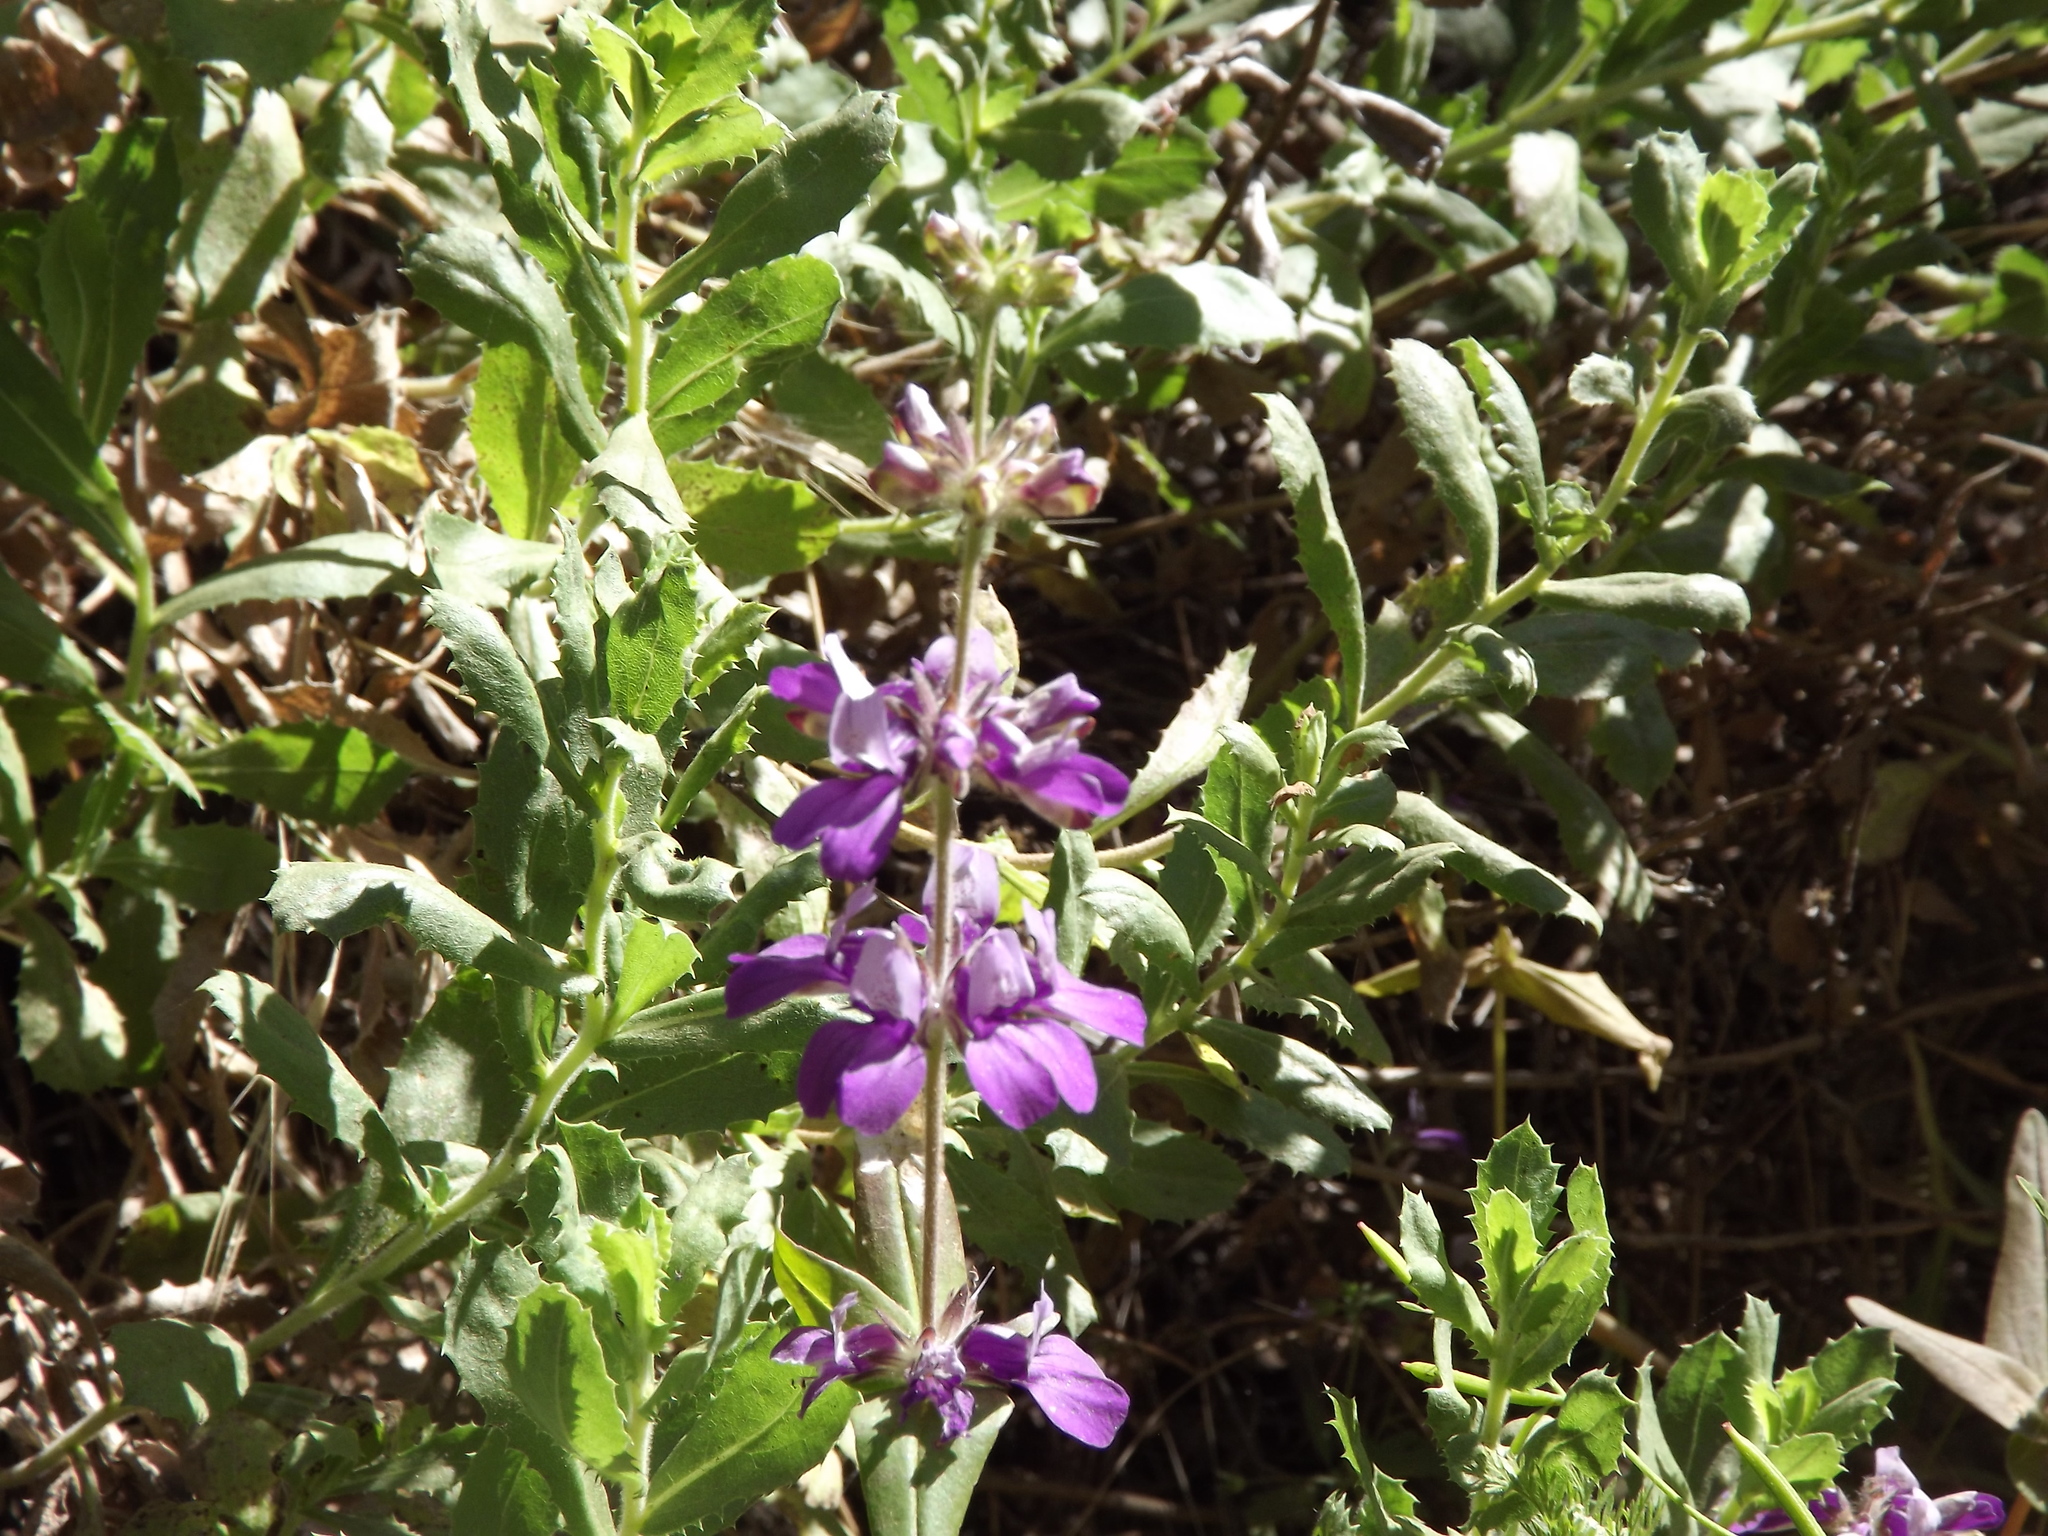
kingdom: Plantae
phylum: Tracheophyta
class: Magnoliopsida
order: Lamiales
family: Plantaginaceae
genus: Collinsia
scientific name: Collinsia heterophylla
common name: Chinese-houses
